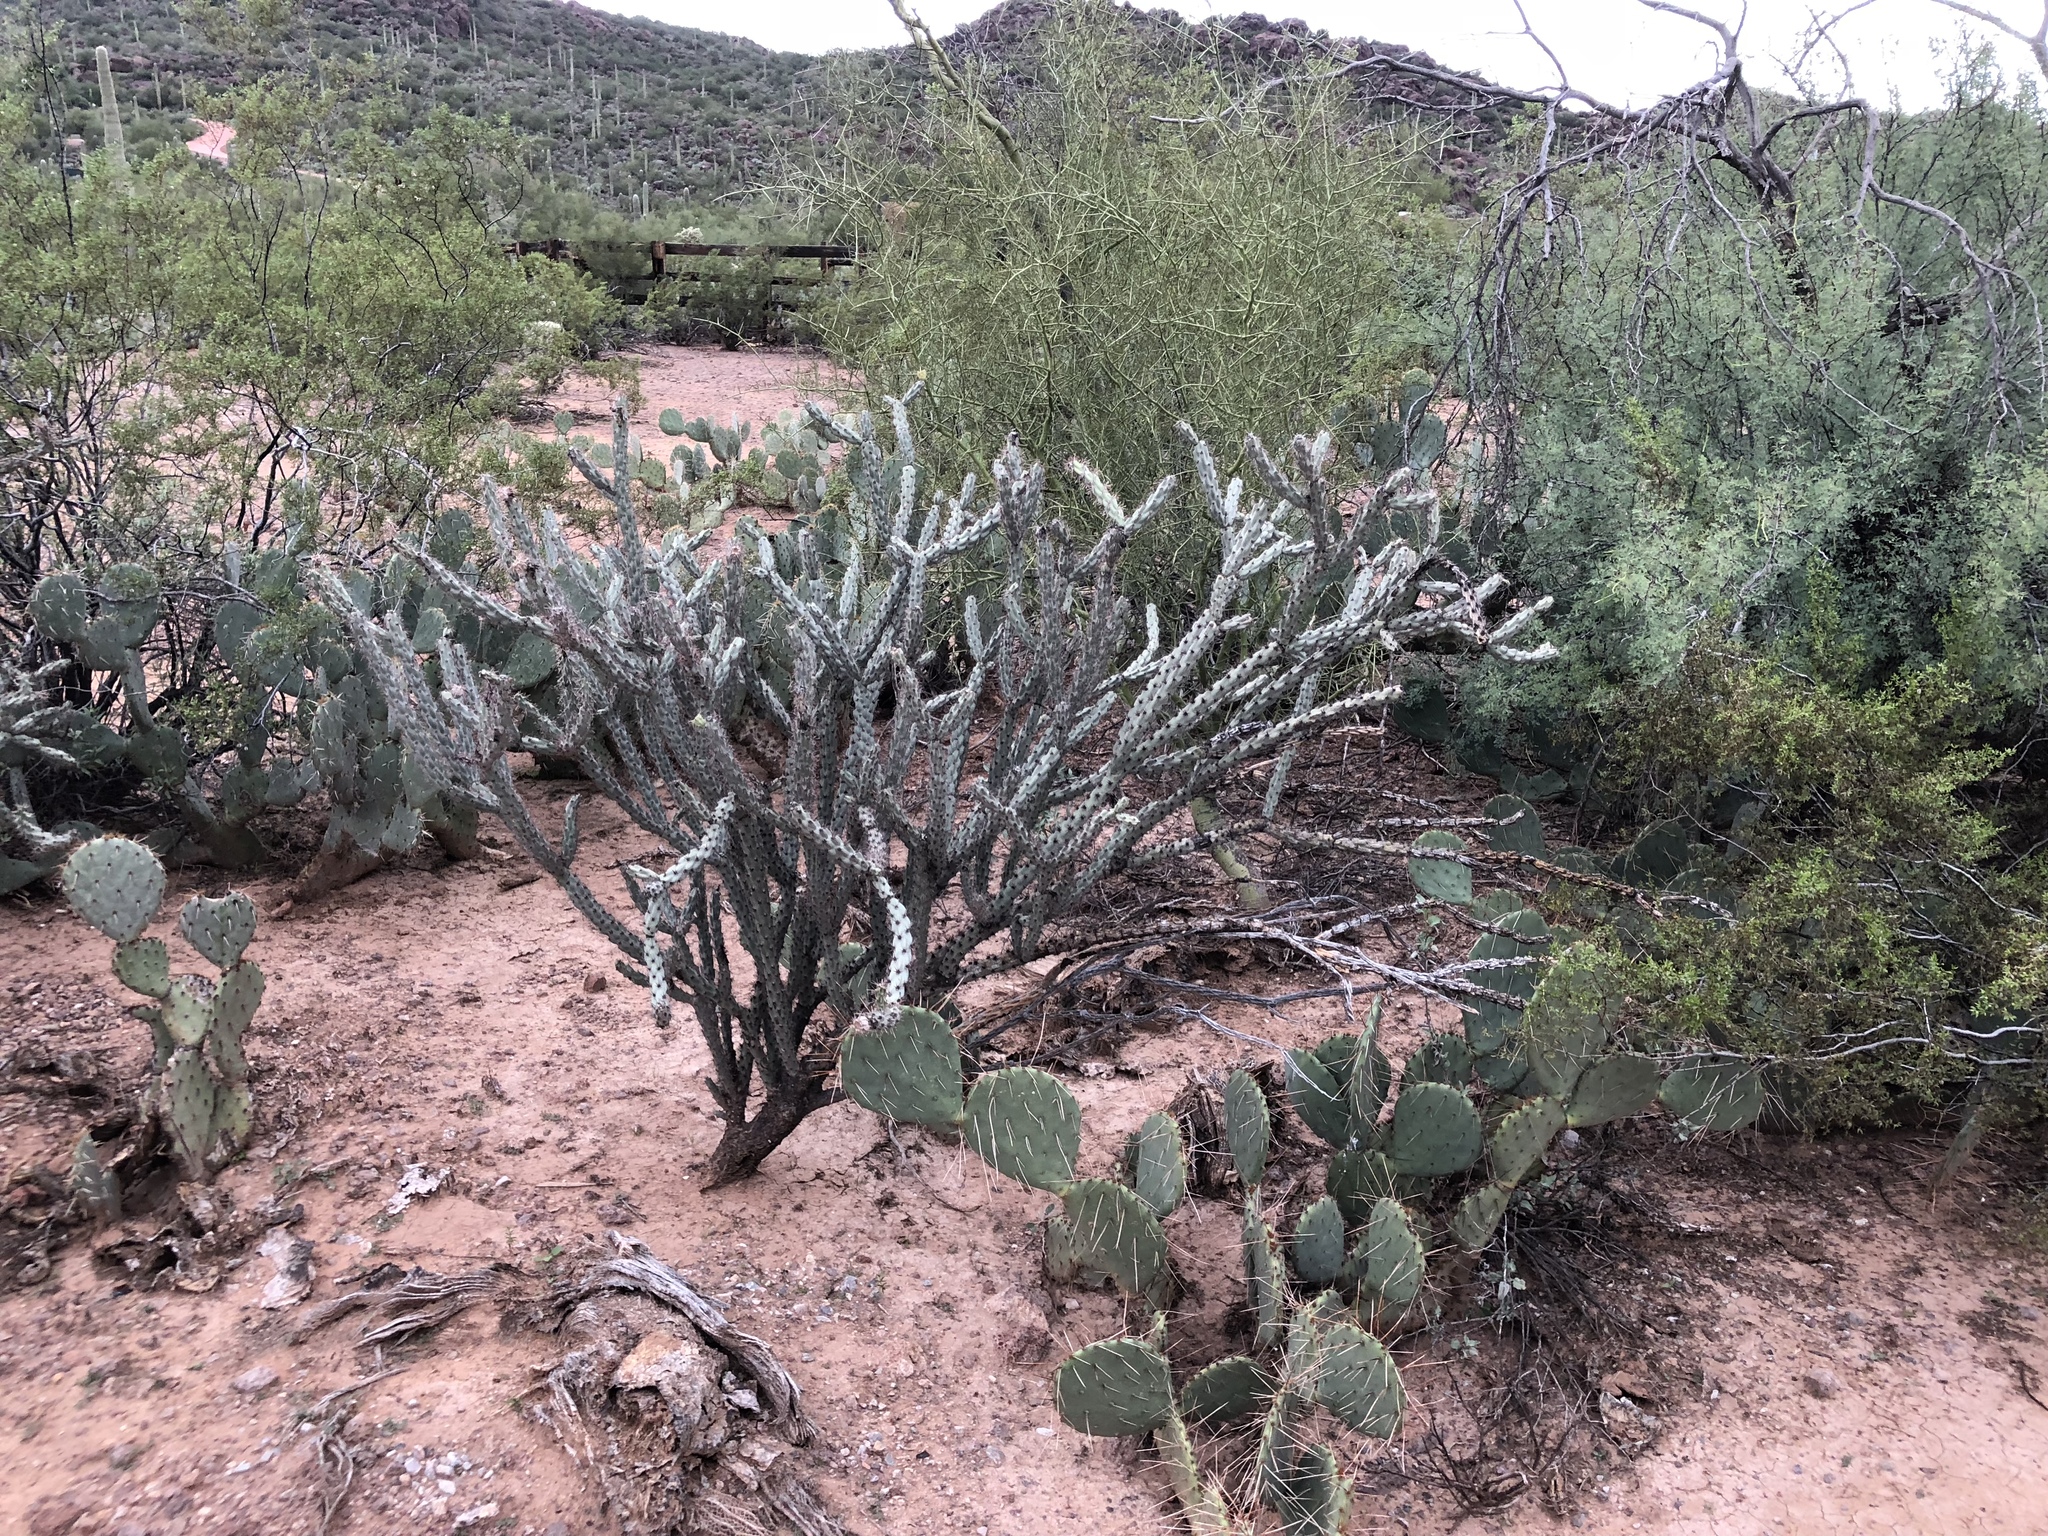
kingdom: Plantae
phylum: Tracheophyta
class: Magnoliopsida
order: Caryophyllales
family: Cactaceae
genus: Cylindropuntia
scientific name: Cylindropuntia acanthocarpa
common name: Buckhorn cholla
